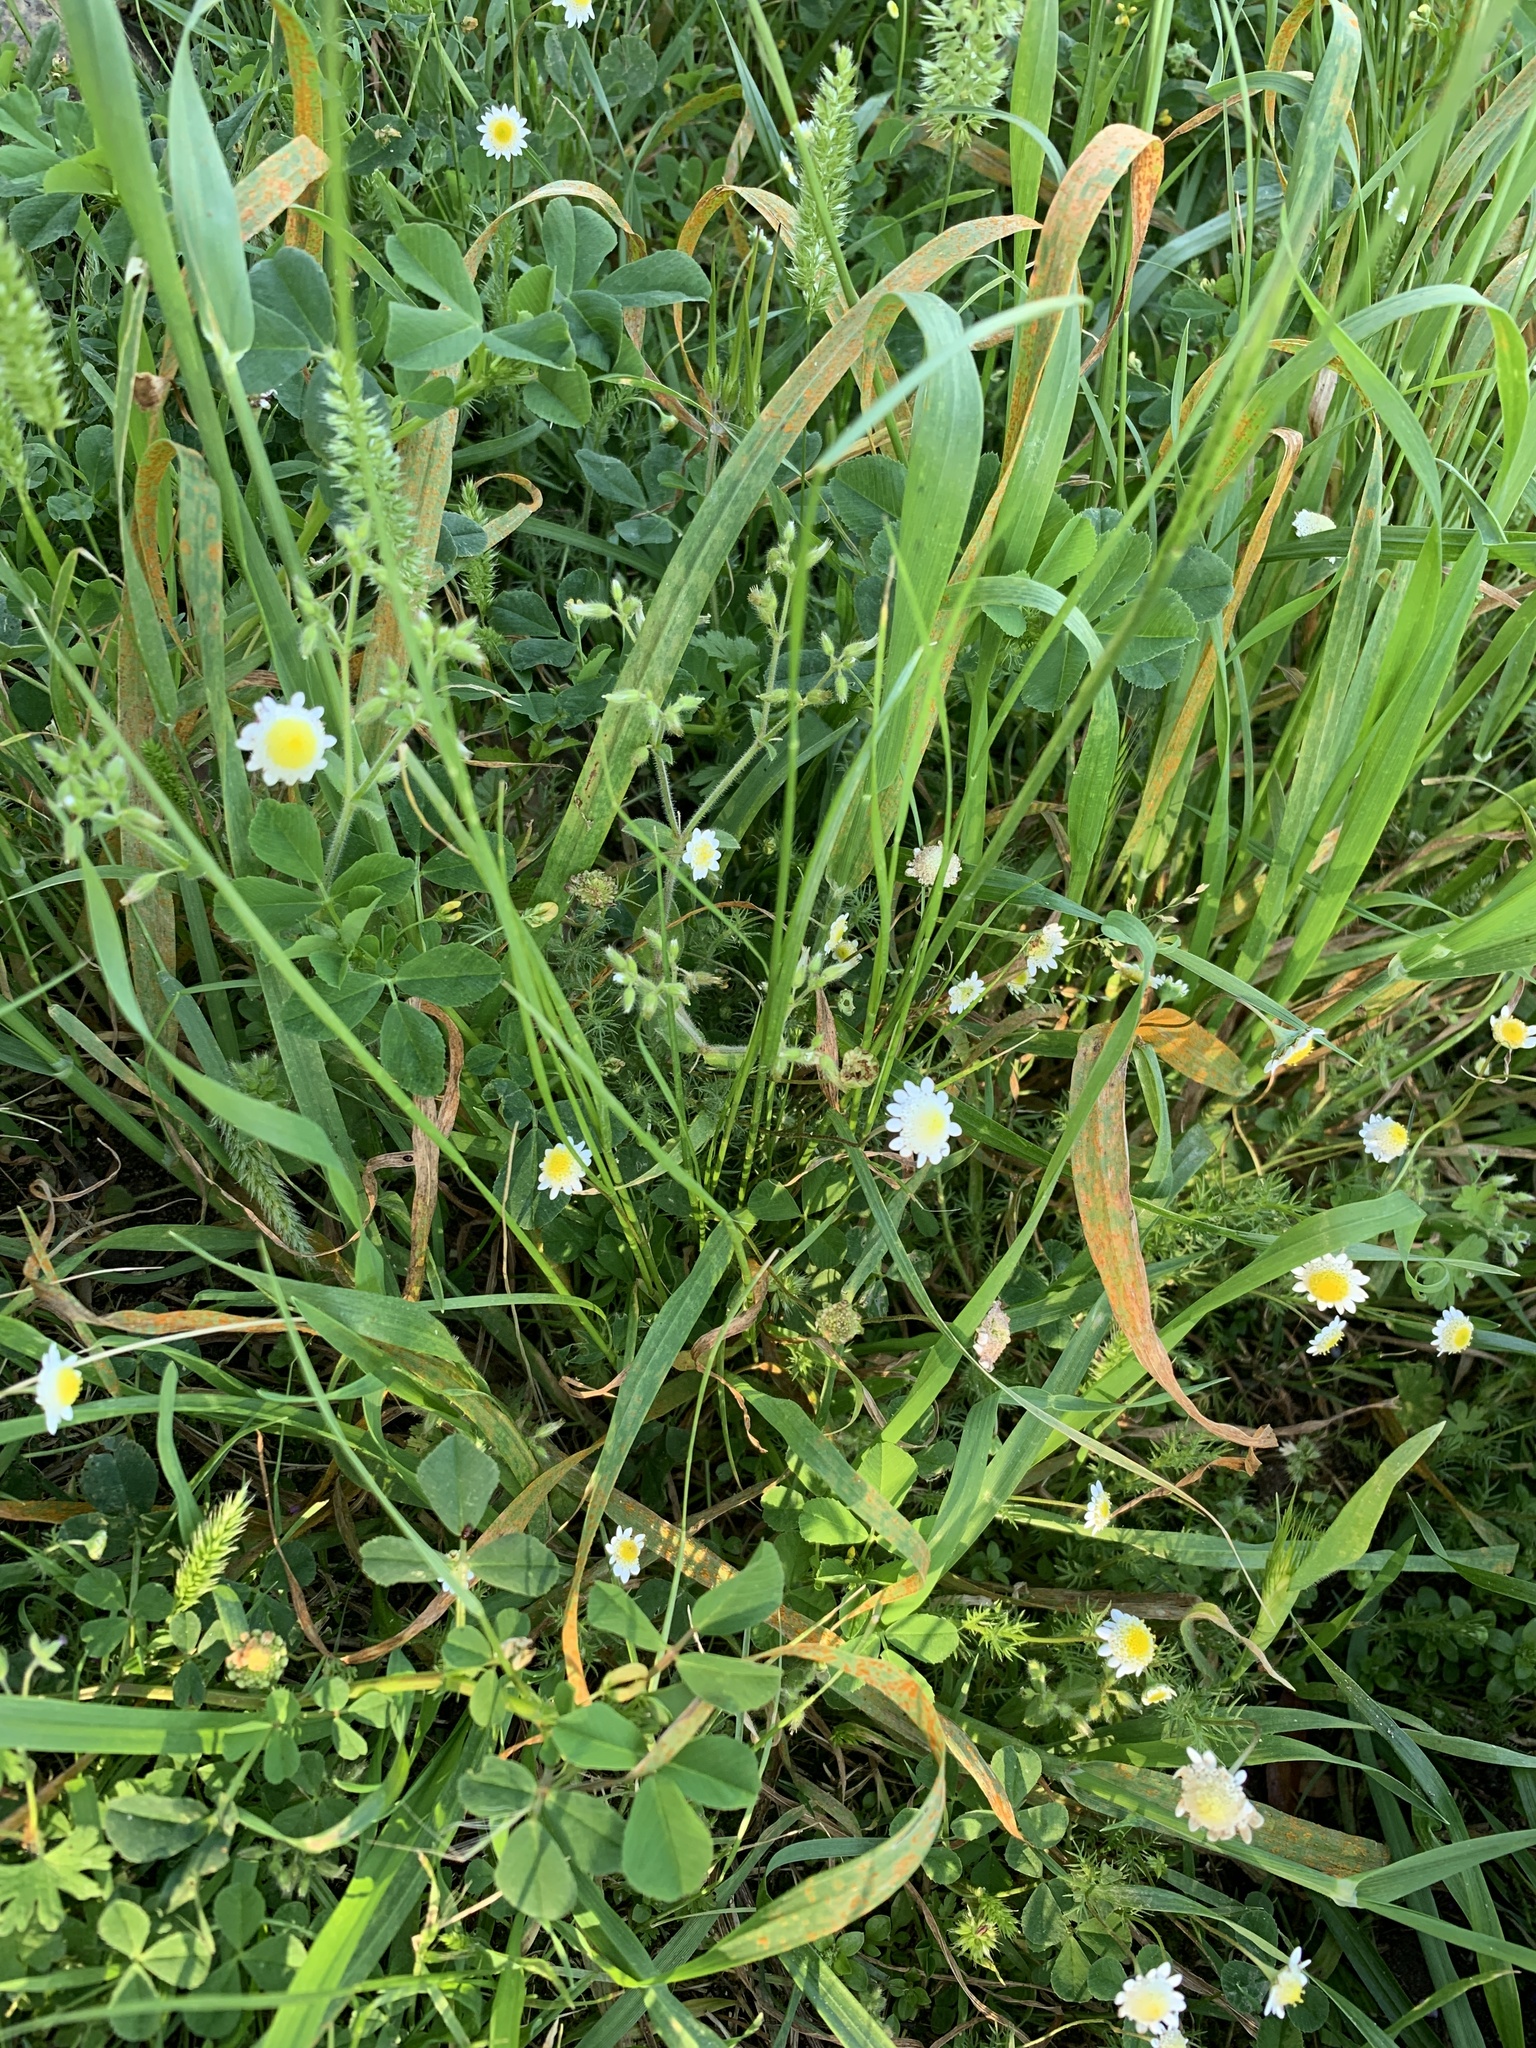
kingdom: Plantae
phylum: Tracheophyta
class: Magnoliopsida
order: Asterales
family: Asteraceae
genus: Cotula
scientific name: Cotula turbinata
